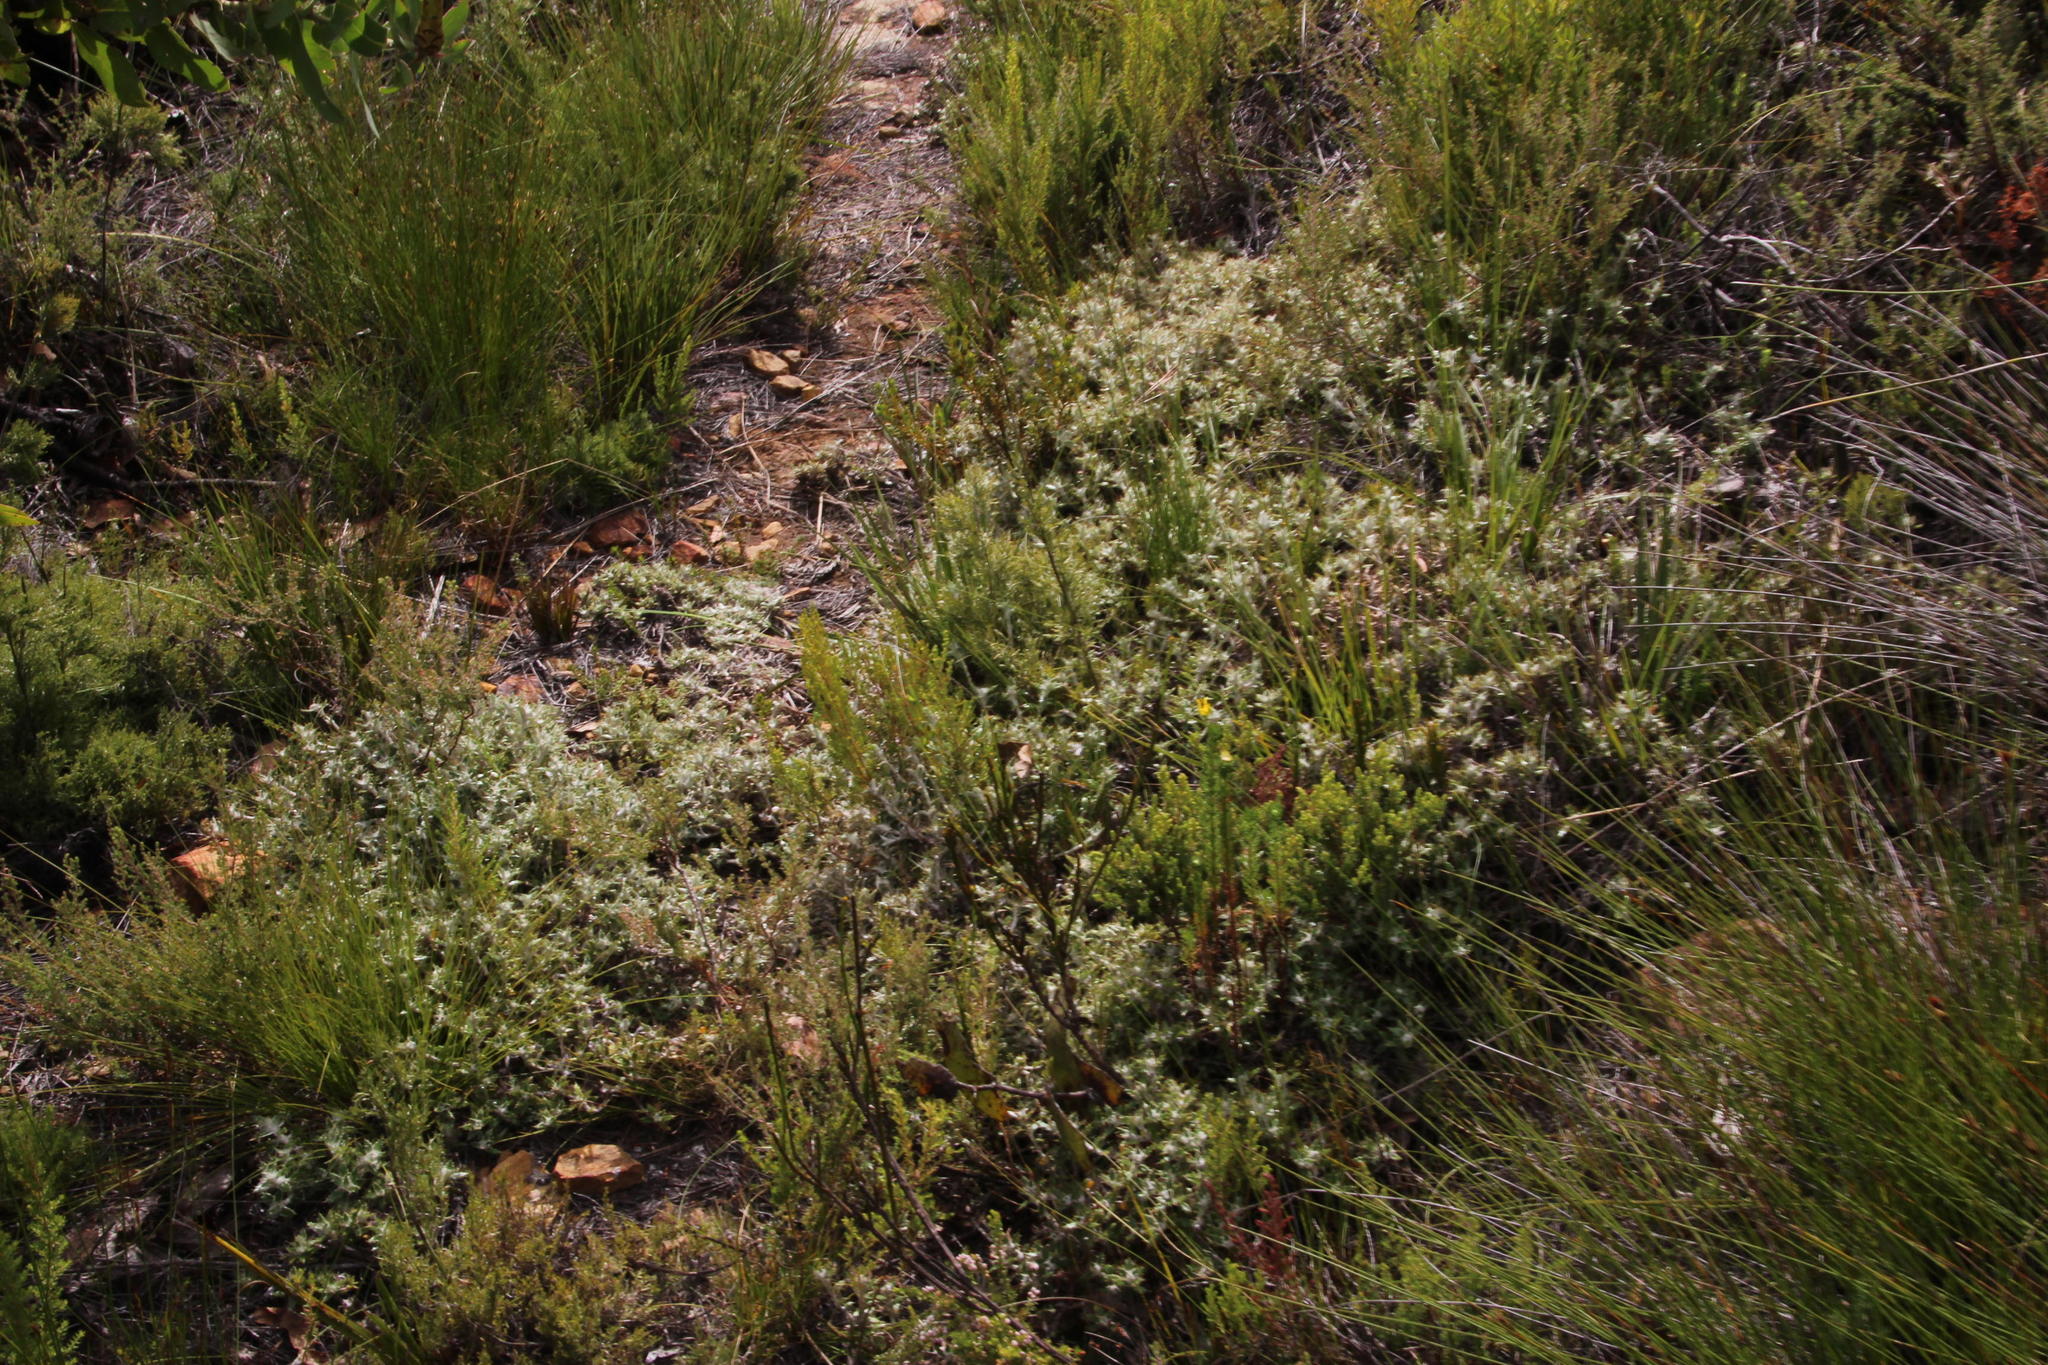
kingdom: Plantae
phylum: Tracheophyta
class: Magnoliopsida
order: Asterales
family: Asteraceae
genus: Cullumia
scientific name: Cullumia aculeata
